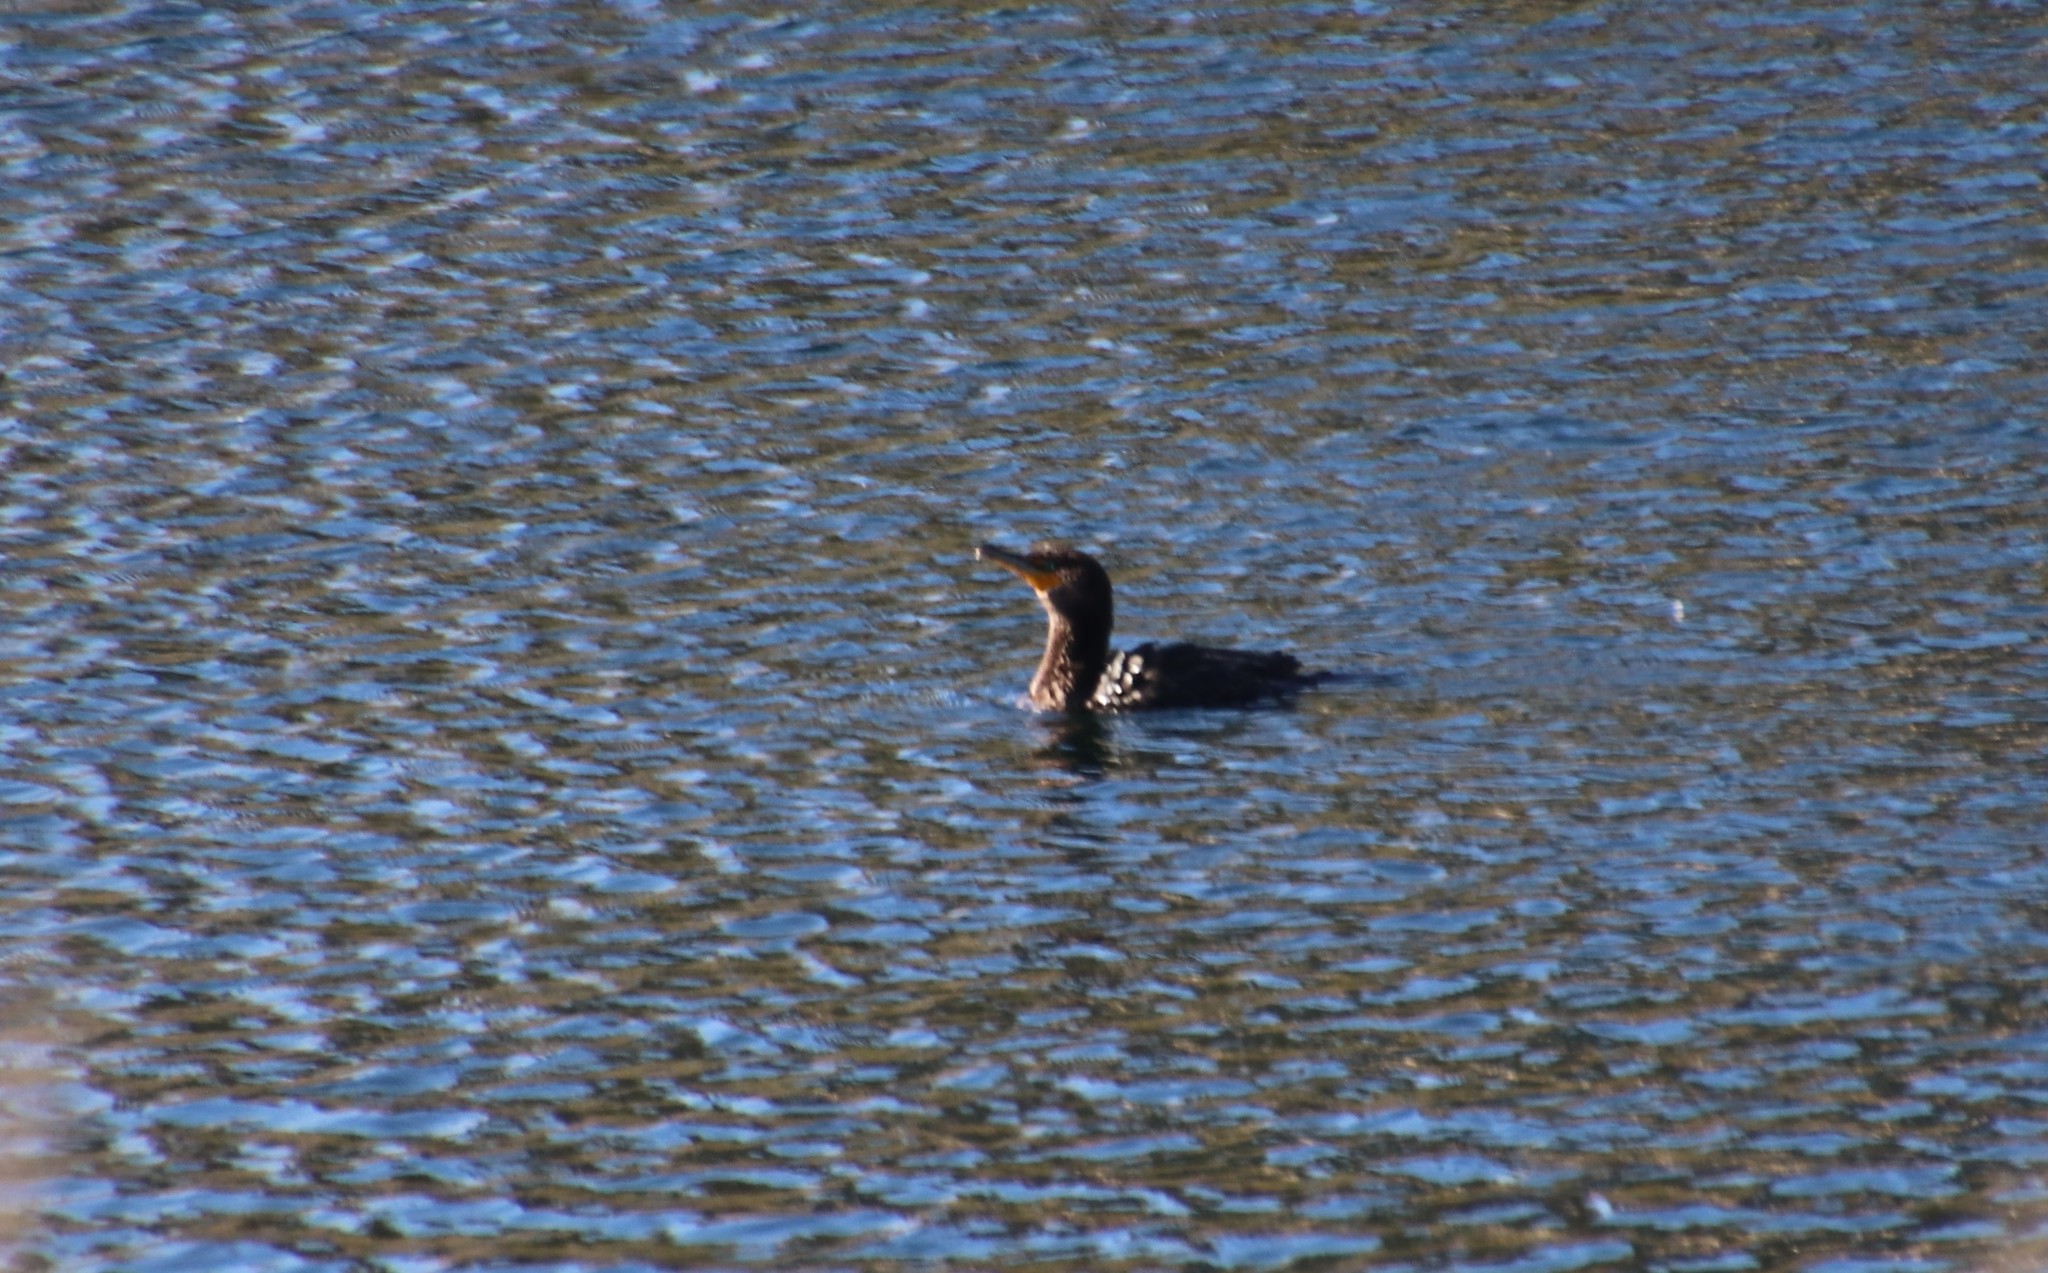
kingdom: Animalia
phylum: Chordata
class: Aves
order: Suliformes
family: Phalacrocoracidae
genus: Phalacrocorax
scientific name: Phalacrocorax auritus
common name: Double-crested cormorant
